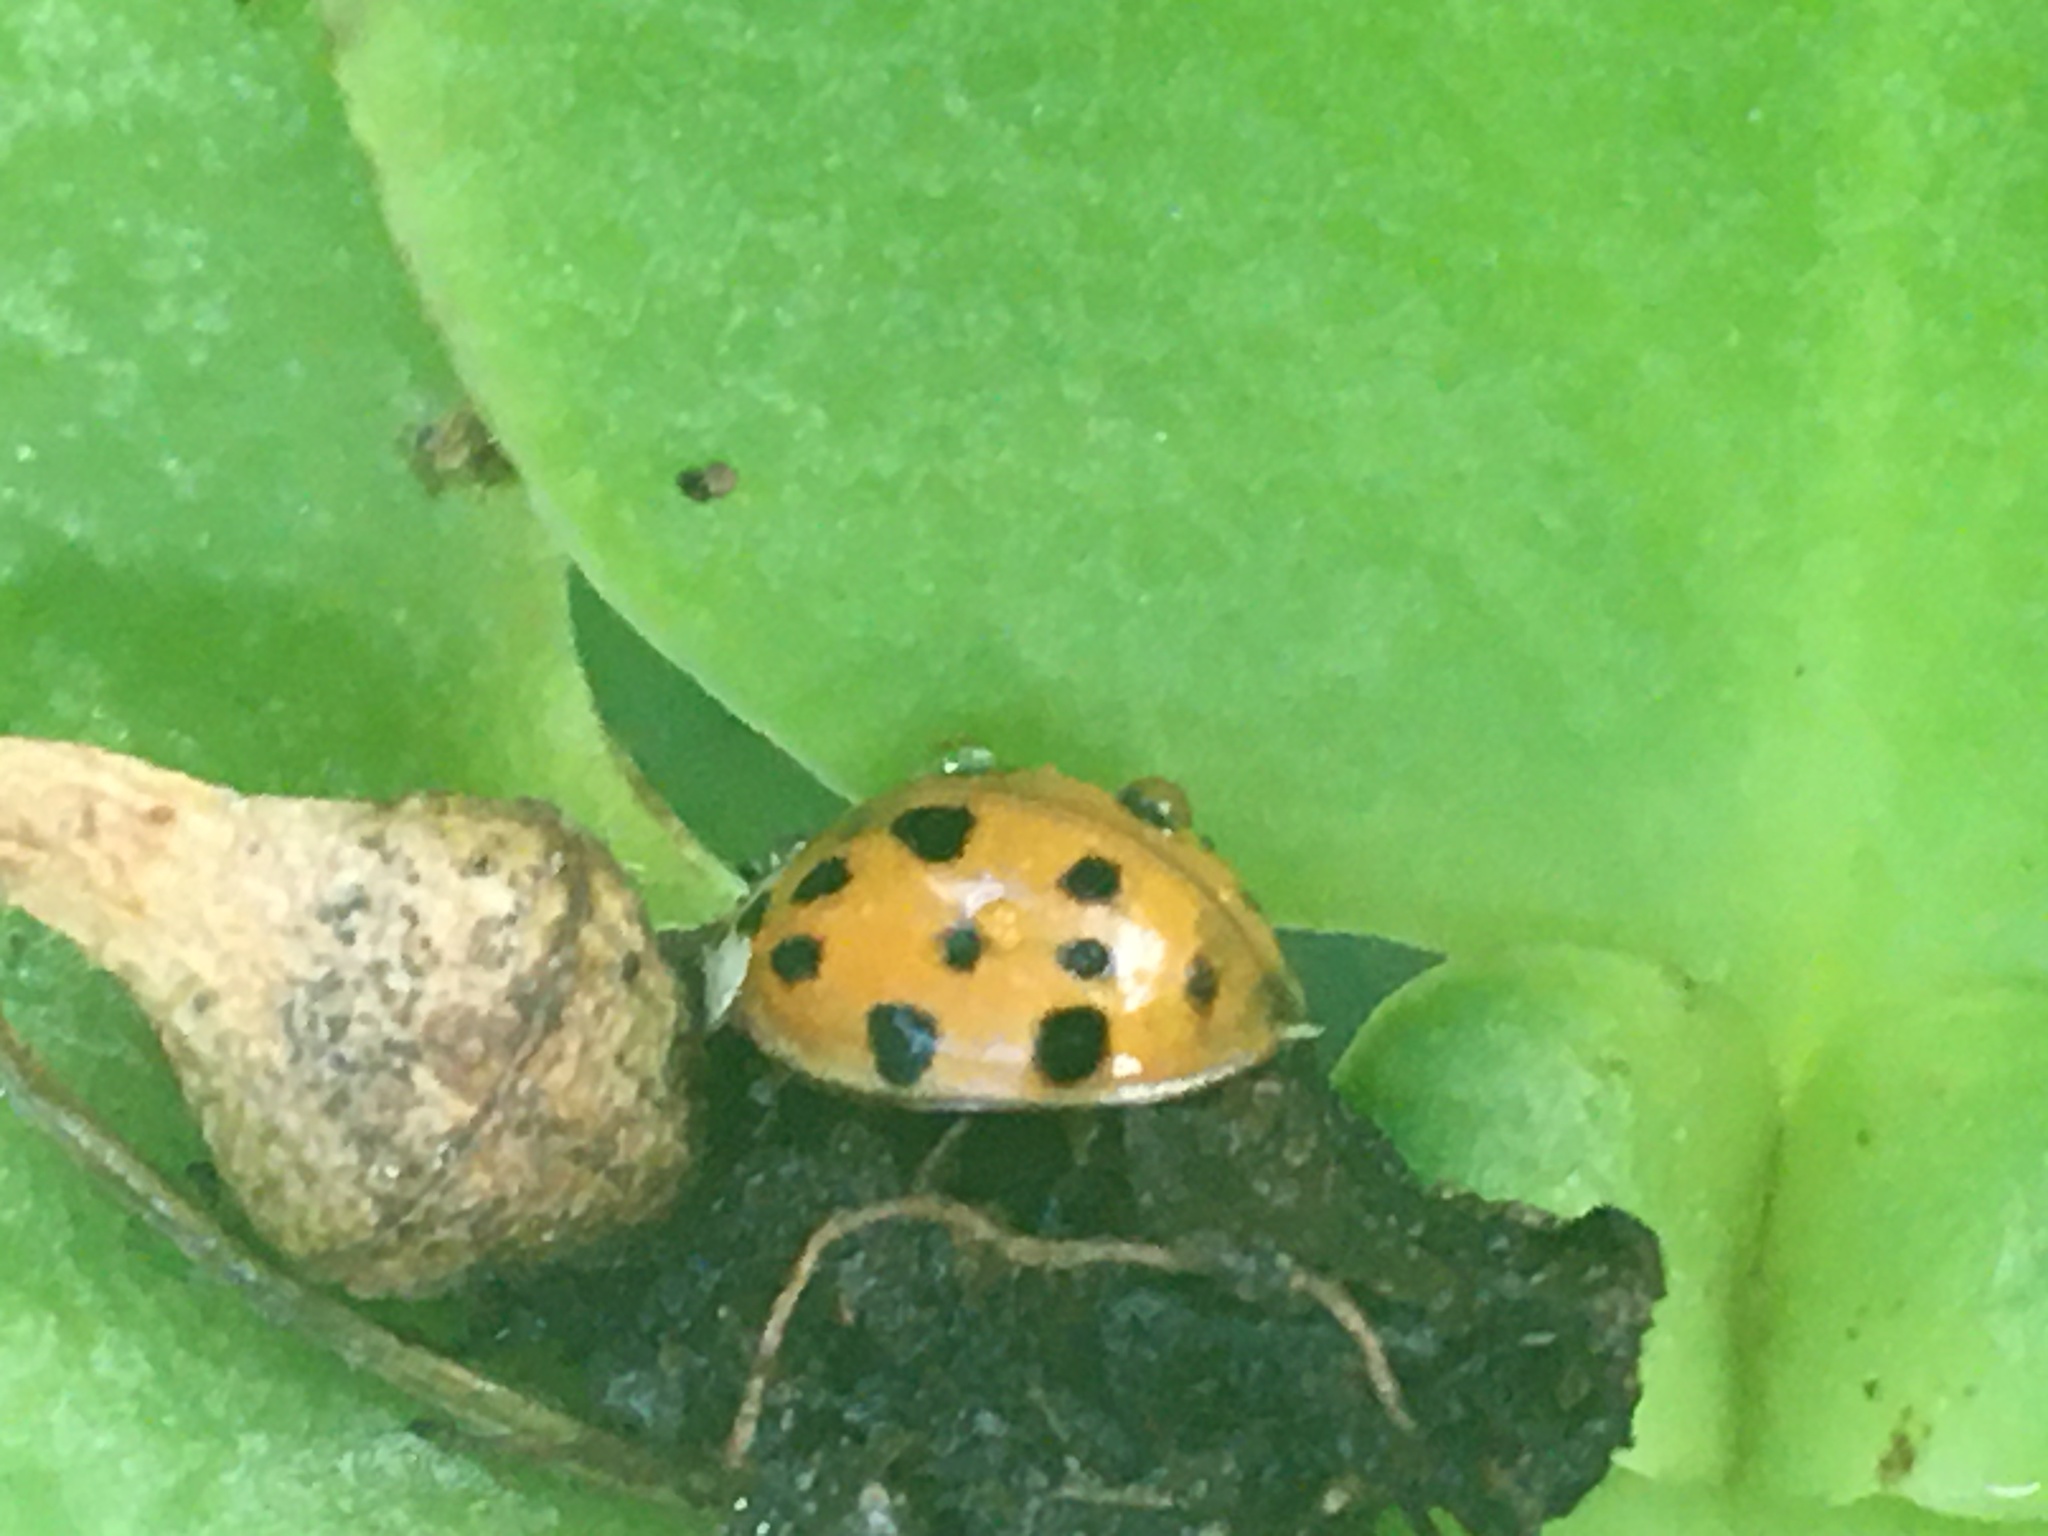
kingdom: Animalia
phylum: Arthropoda
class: Insecta
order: Coleoptera
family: Coccinellidae
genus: Harmonia
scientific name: Harmonia axyridis
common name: Harlequin ladybird
